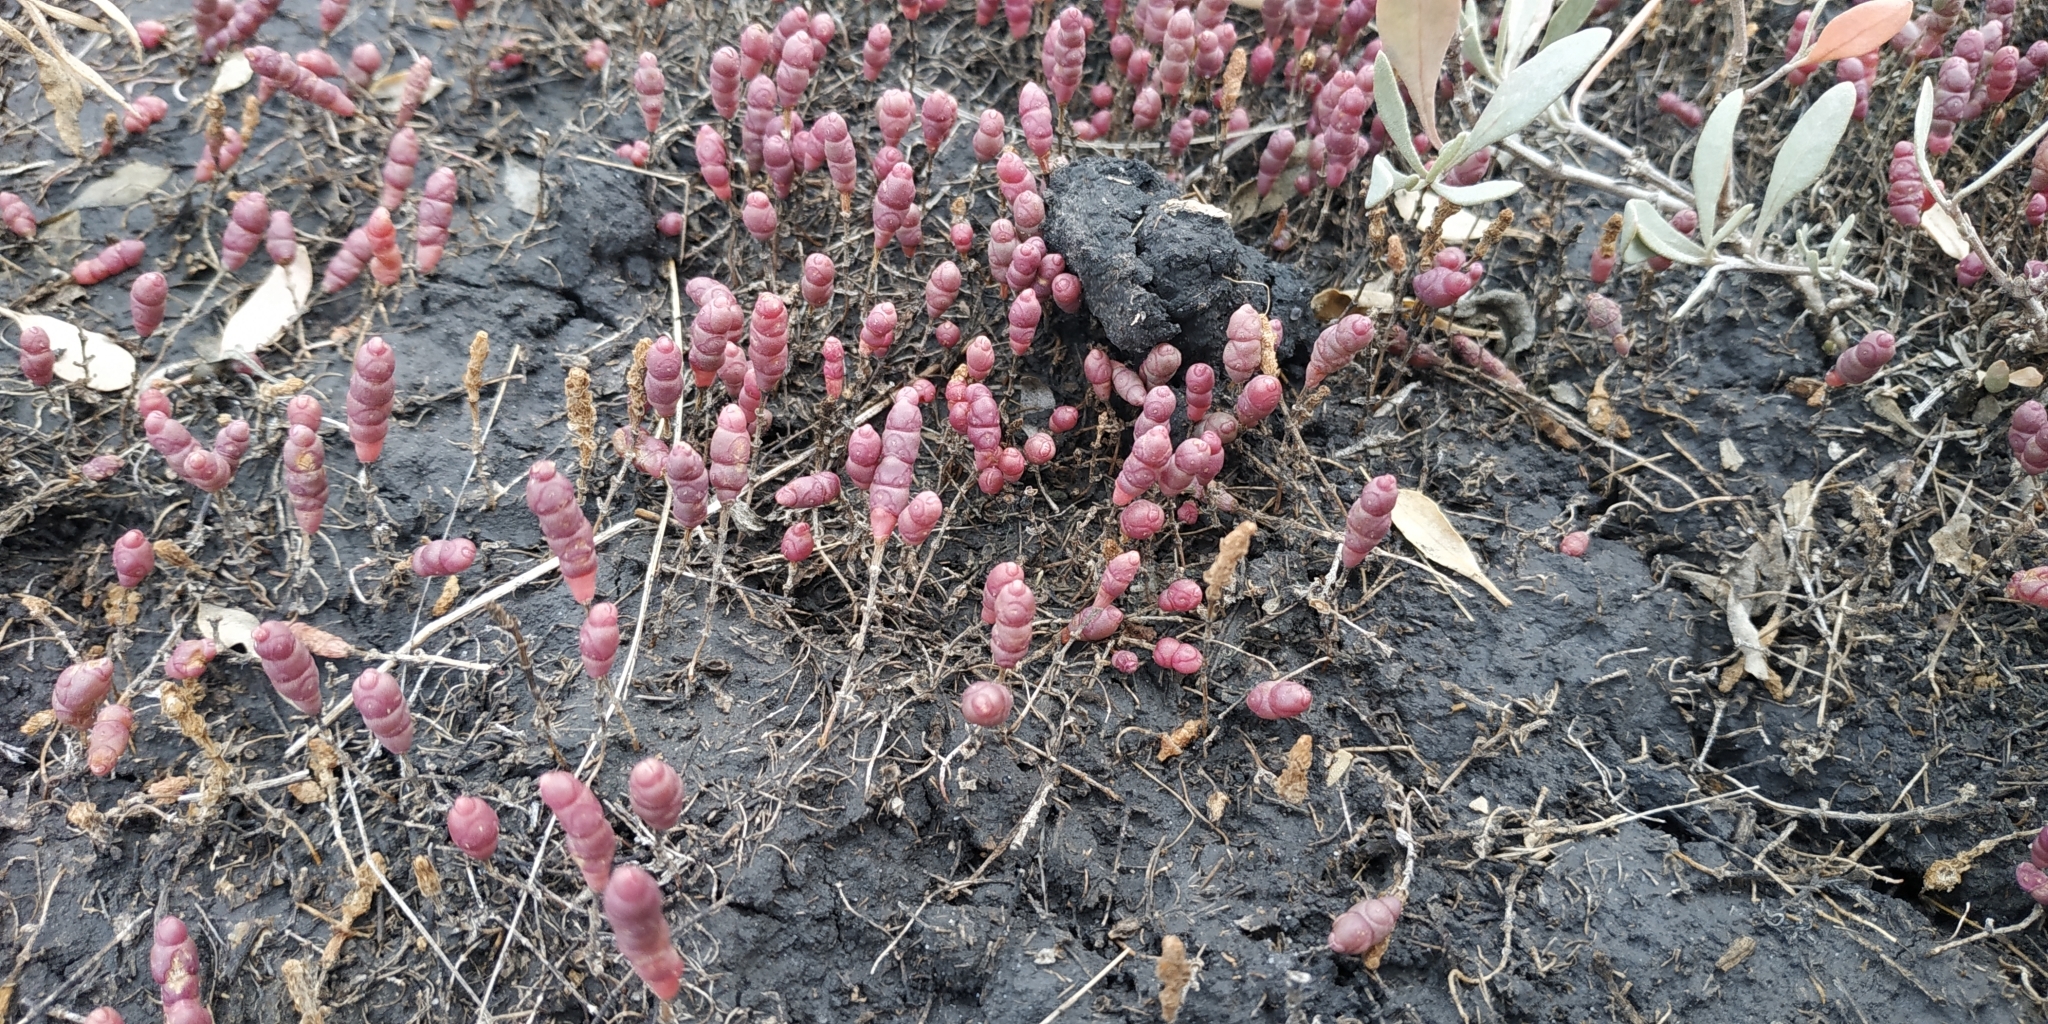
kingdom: Plantae
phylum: Tracheophyta
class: Magnoliopsida
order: Caryophyllales
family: Amaranthaceae
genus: Salicornia
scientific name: Salicornia perennans
